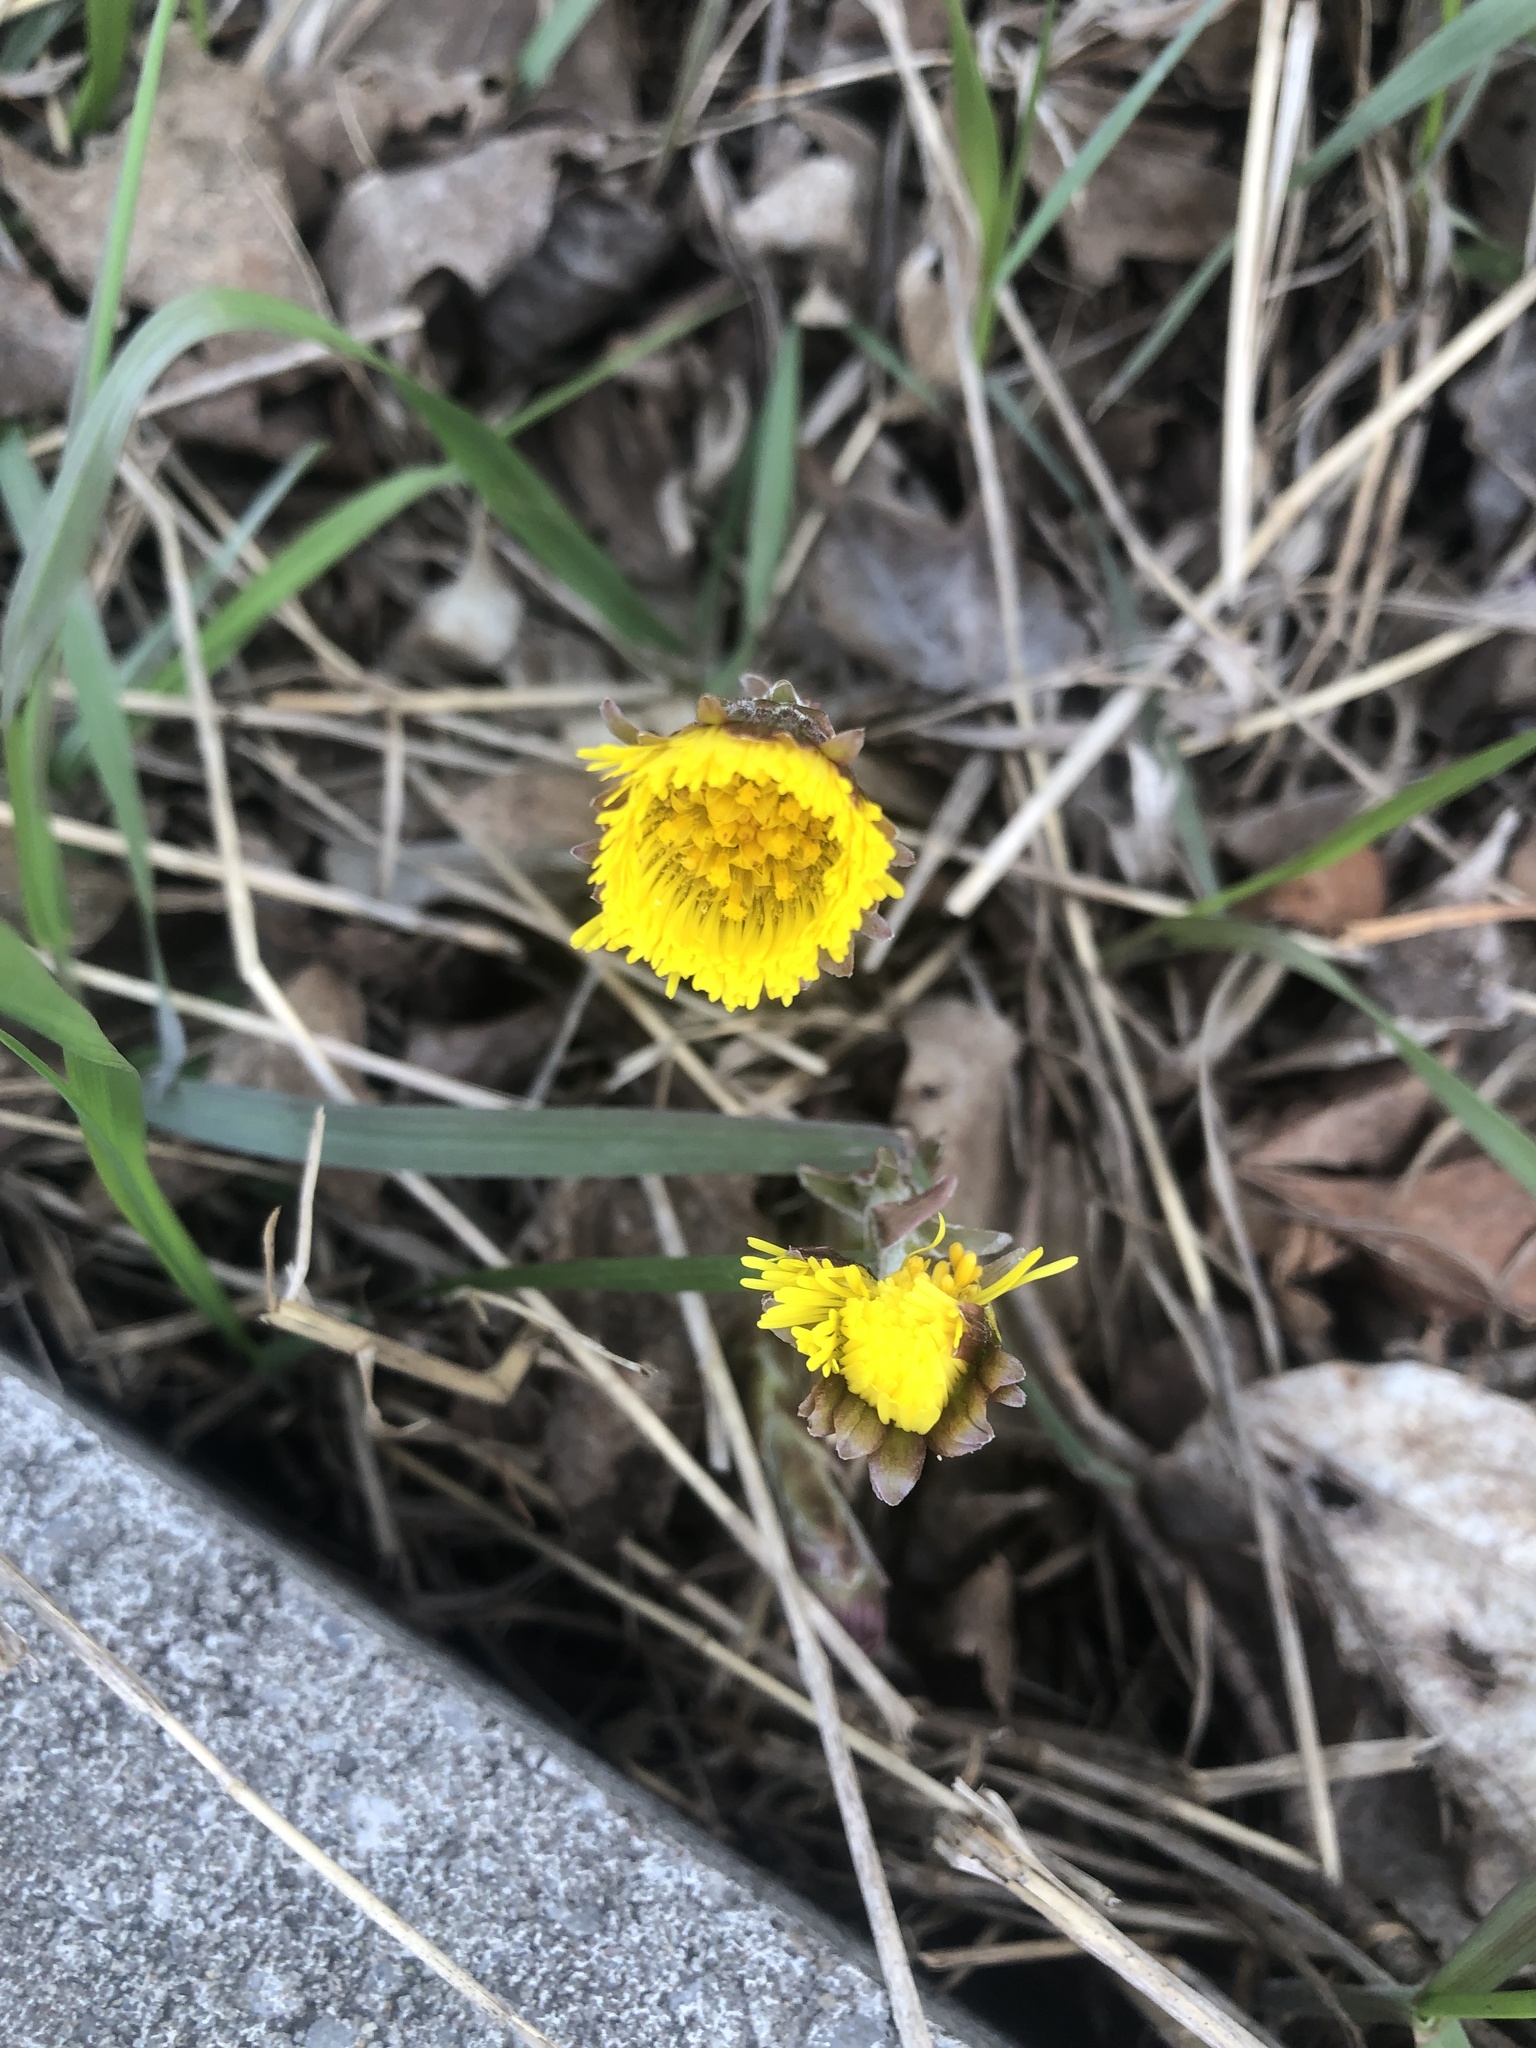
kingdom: Plantae
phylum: Tracheophyta
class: Magnoliopsida
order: Asterales
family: Asteraceae
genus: Tussilago
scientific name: Tussilago farfara
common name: Coltsfoot
